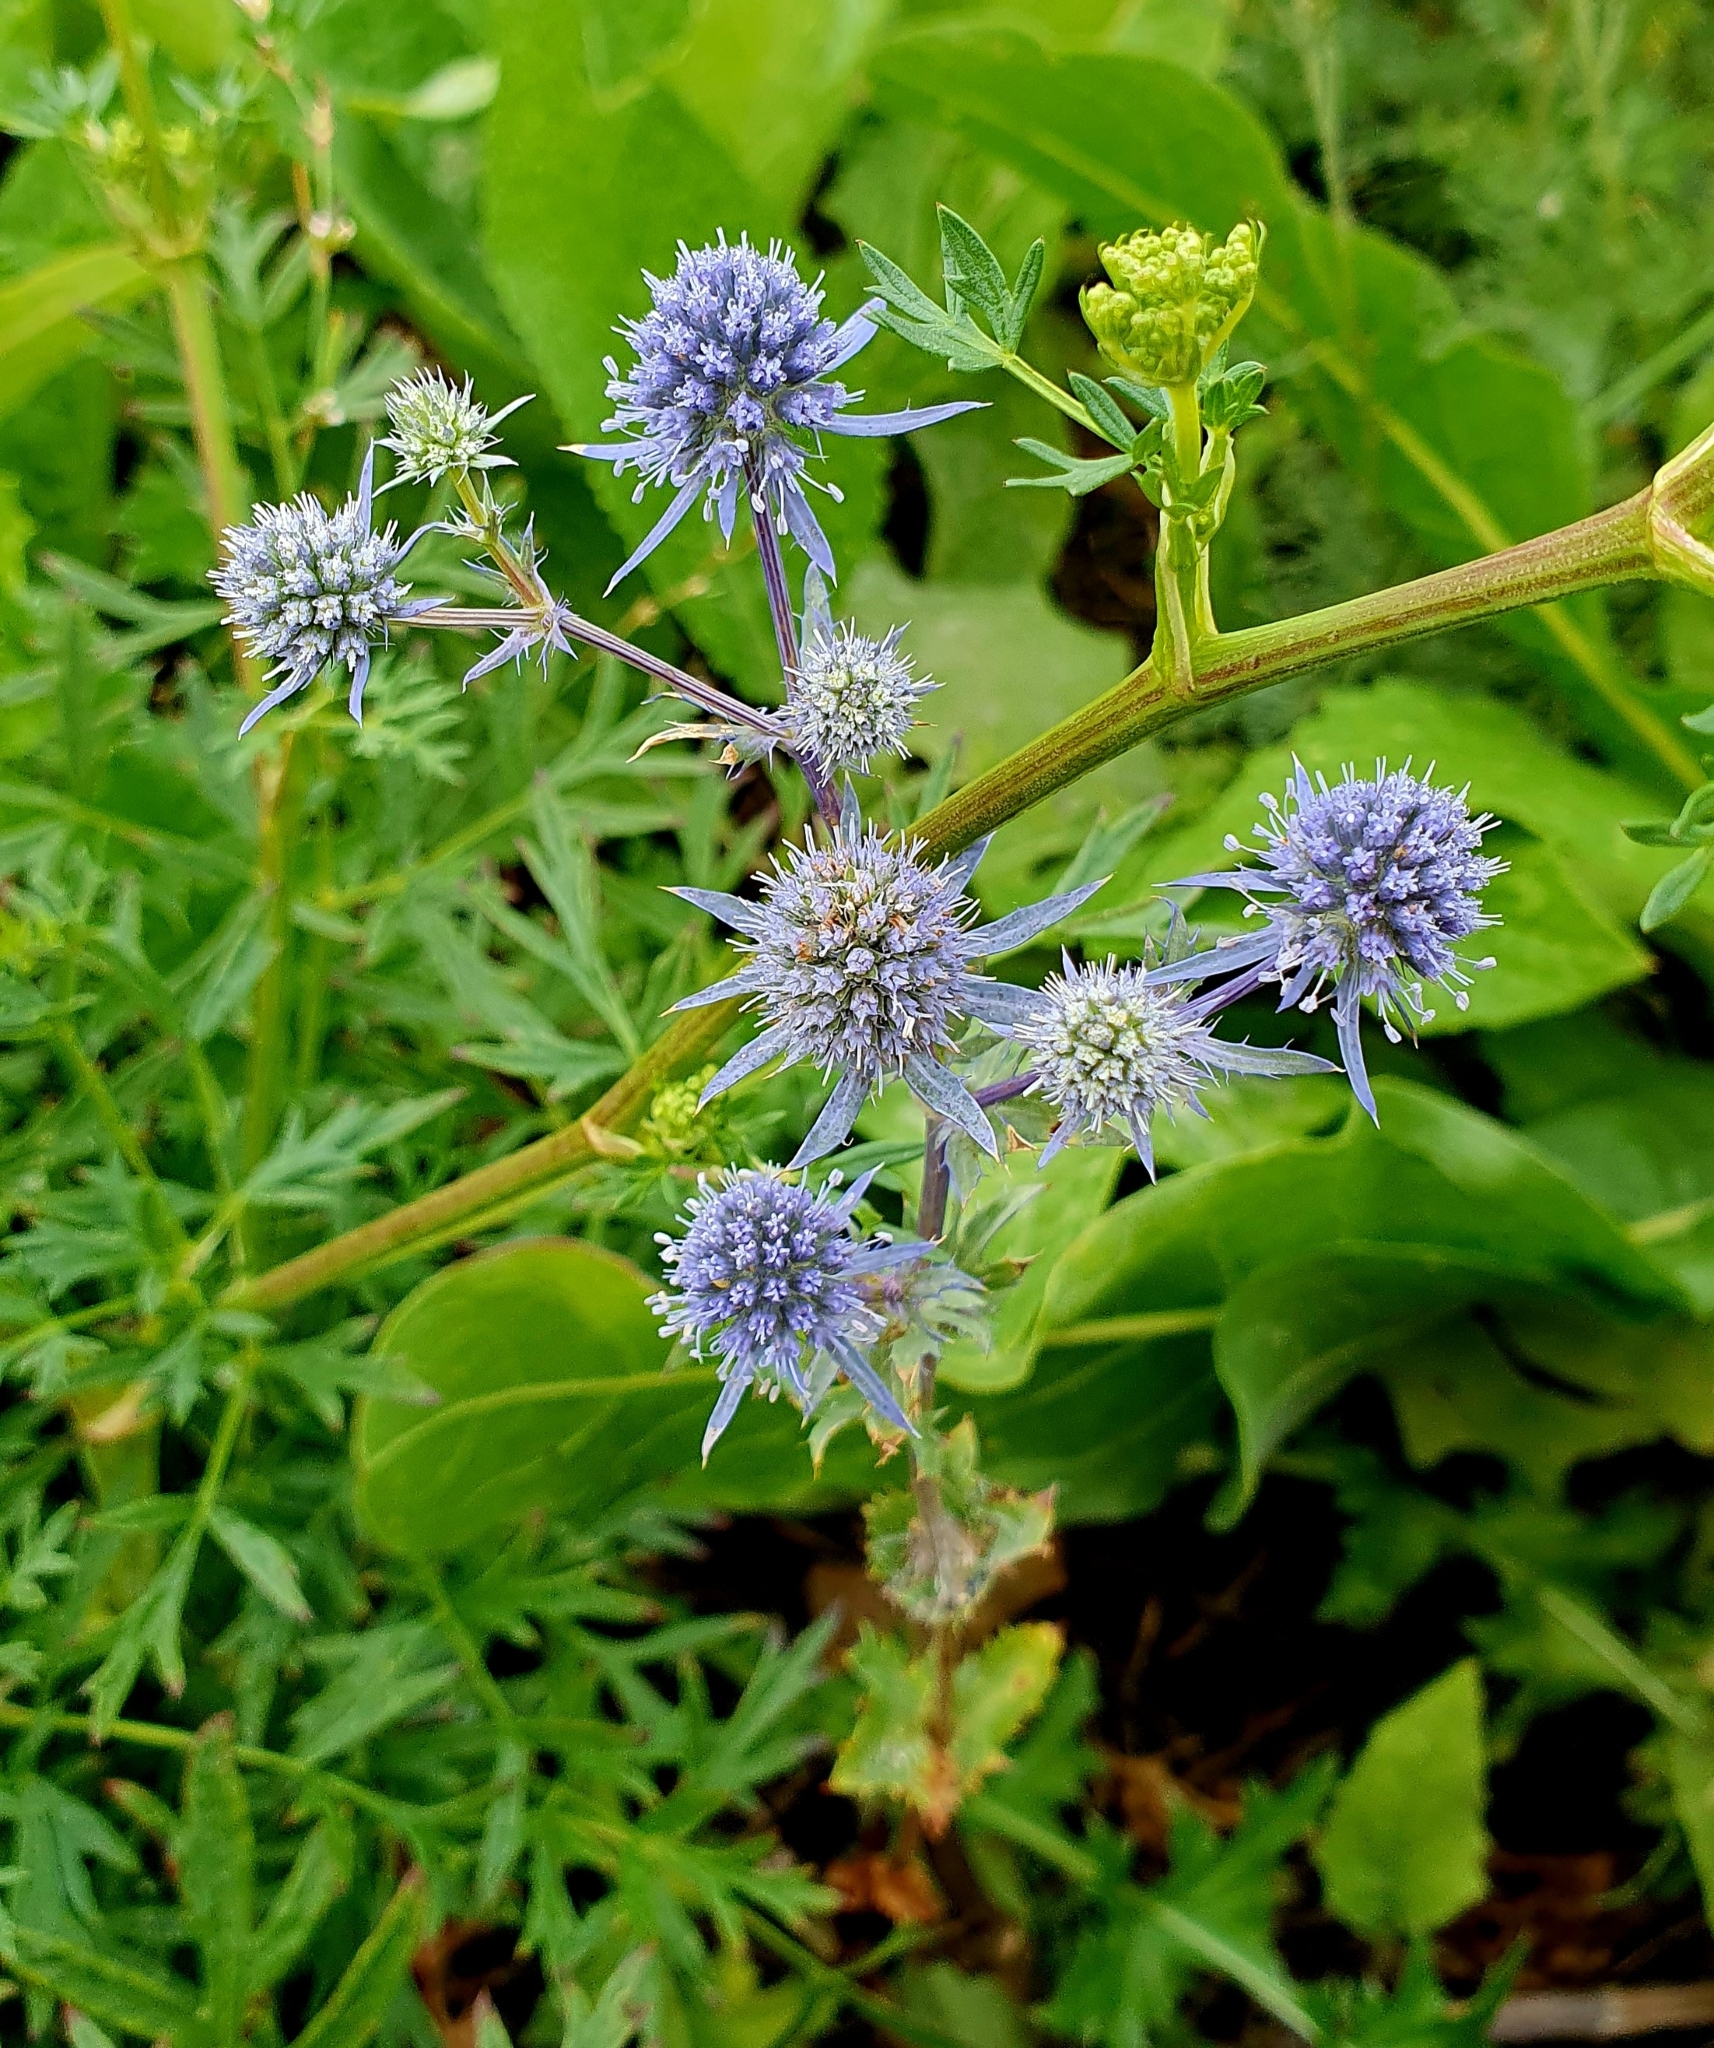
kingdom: Plantae
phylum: Tracheophyta
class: Magnoliopsida
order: Apiales
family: Apiaceae
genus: Eryngium
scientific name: Eryngium planum
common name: Blue eryngo
